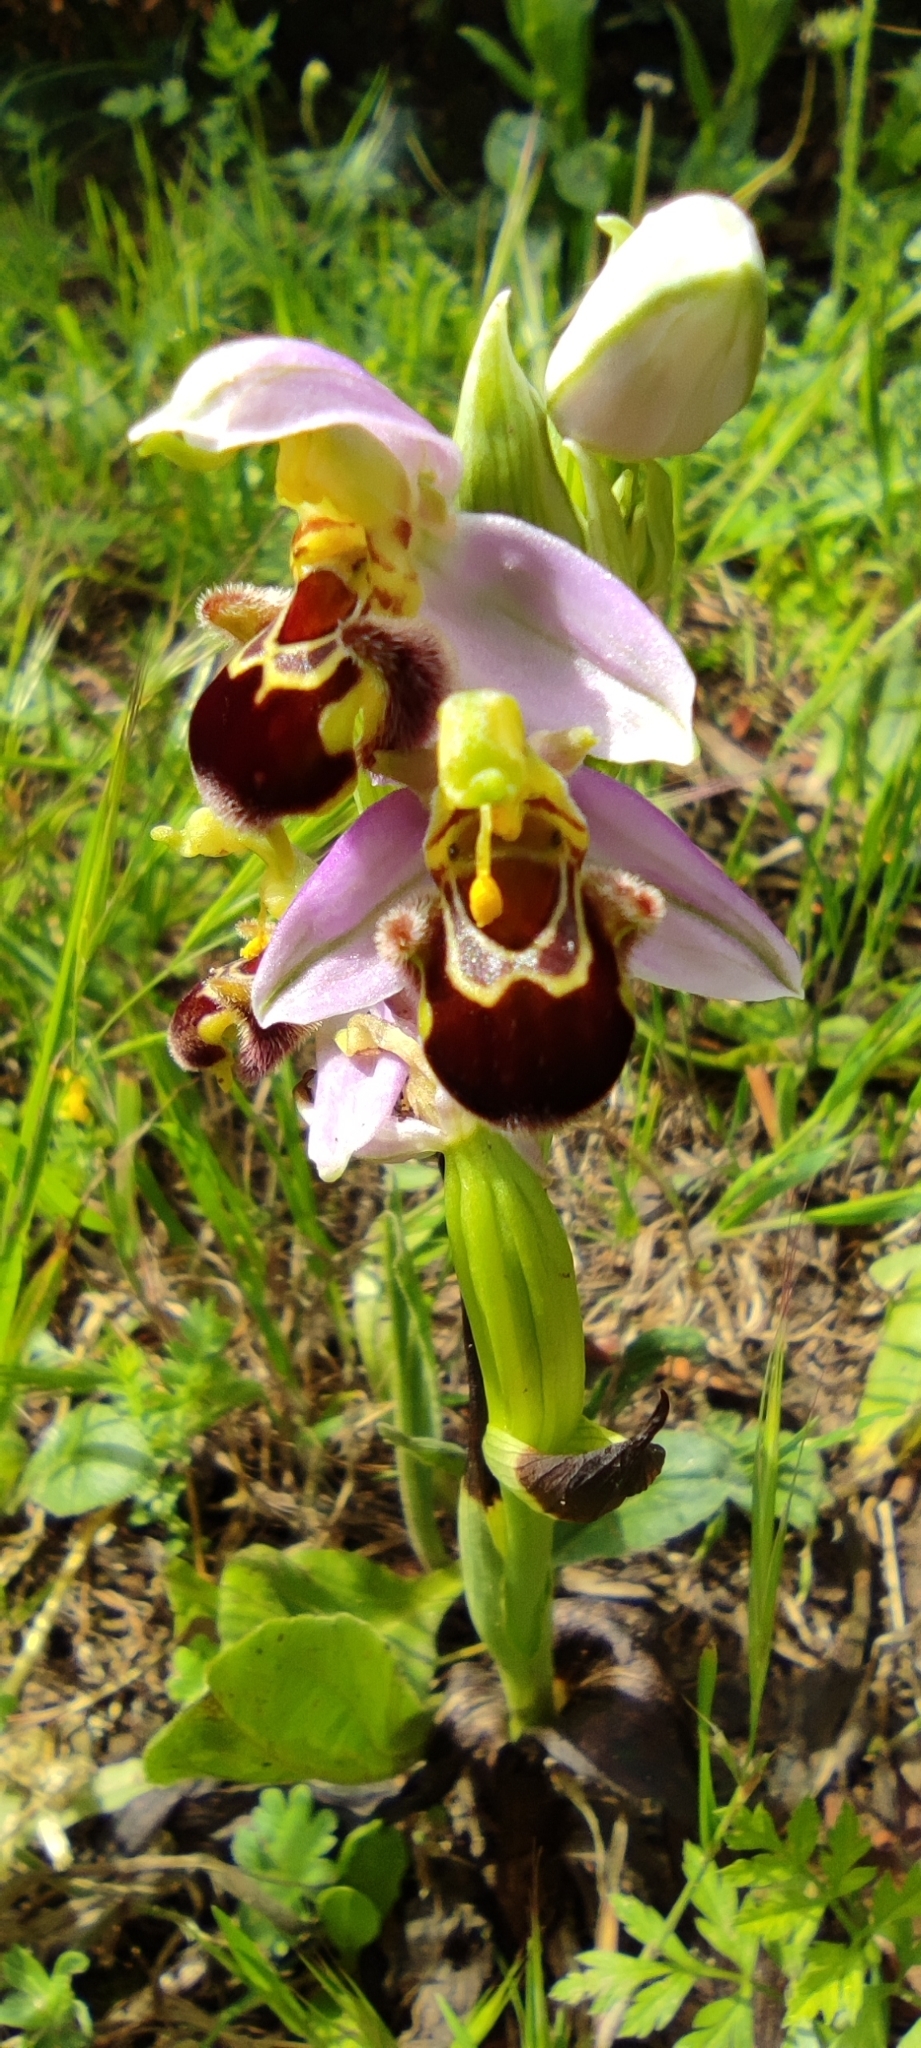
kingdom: Plantae
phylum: Tracheophyta
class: Liliopsida
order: Asparagales
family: Orchidaceae
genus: Ophrys
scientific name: Ophrys apifera
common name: Bee orchid
